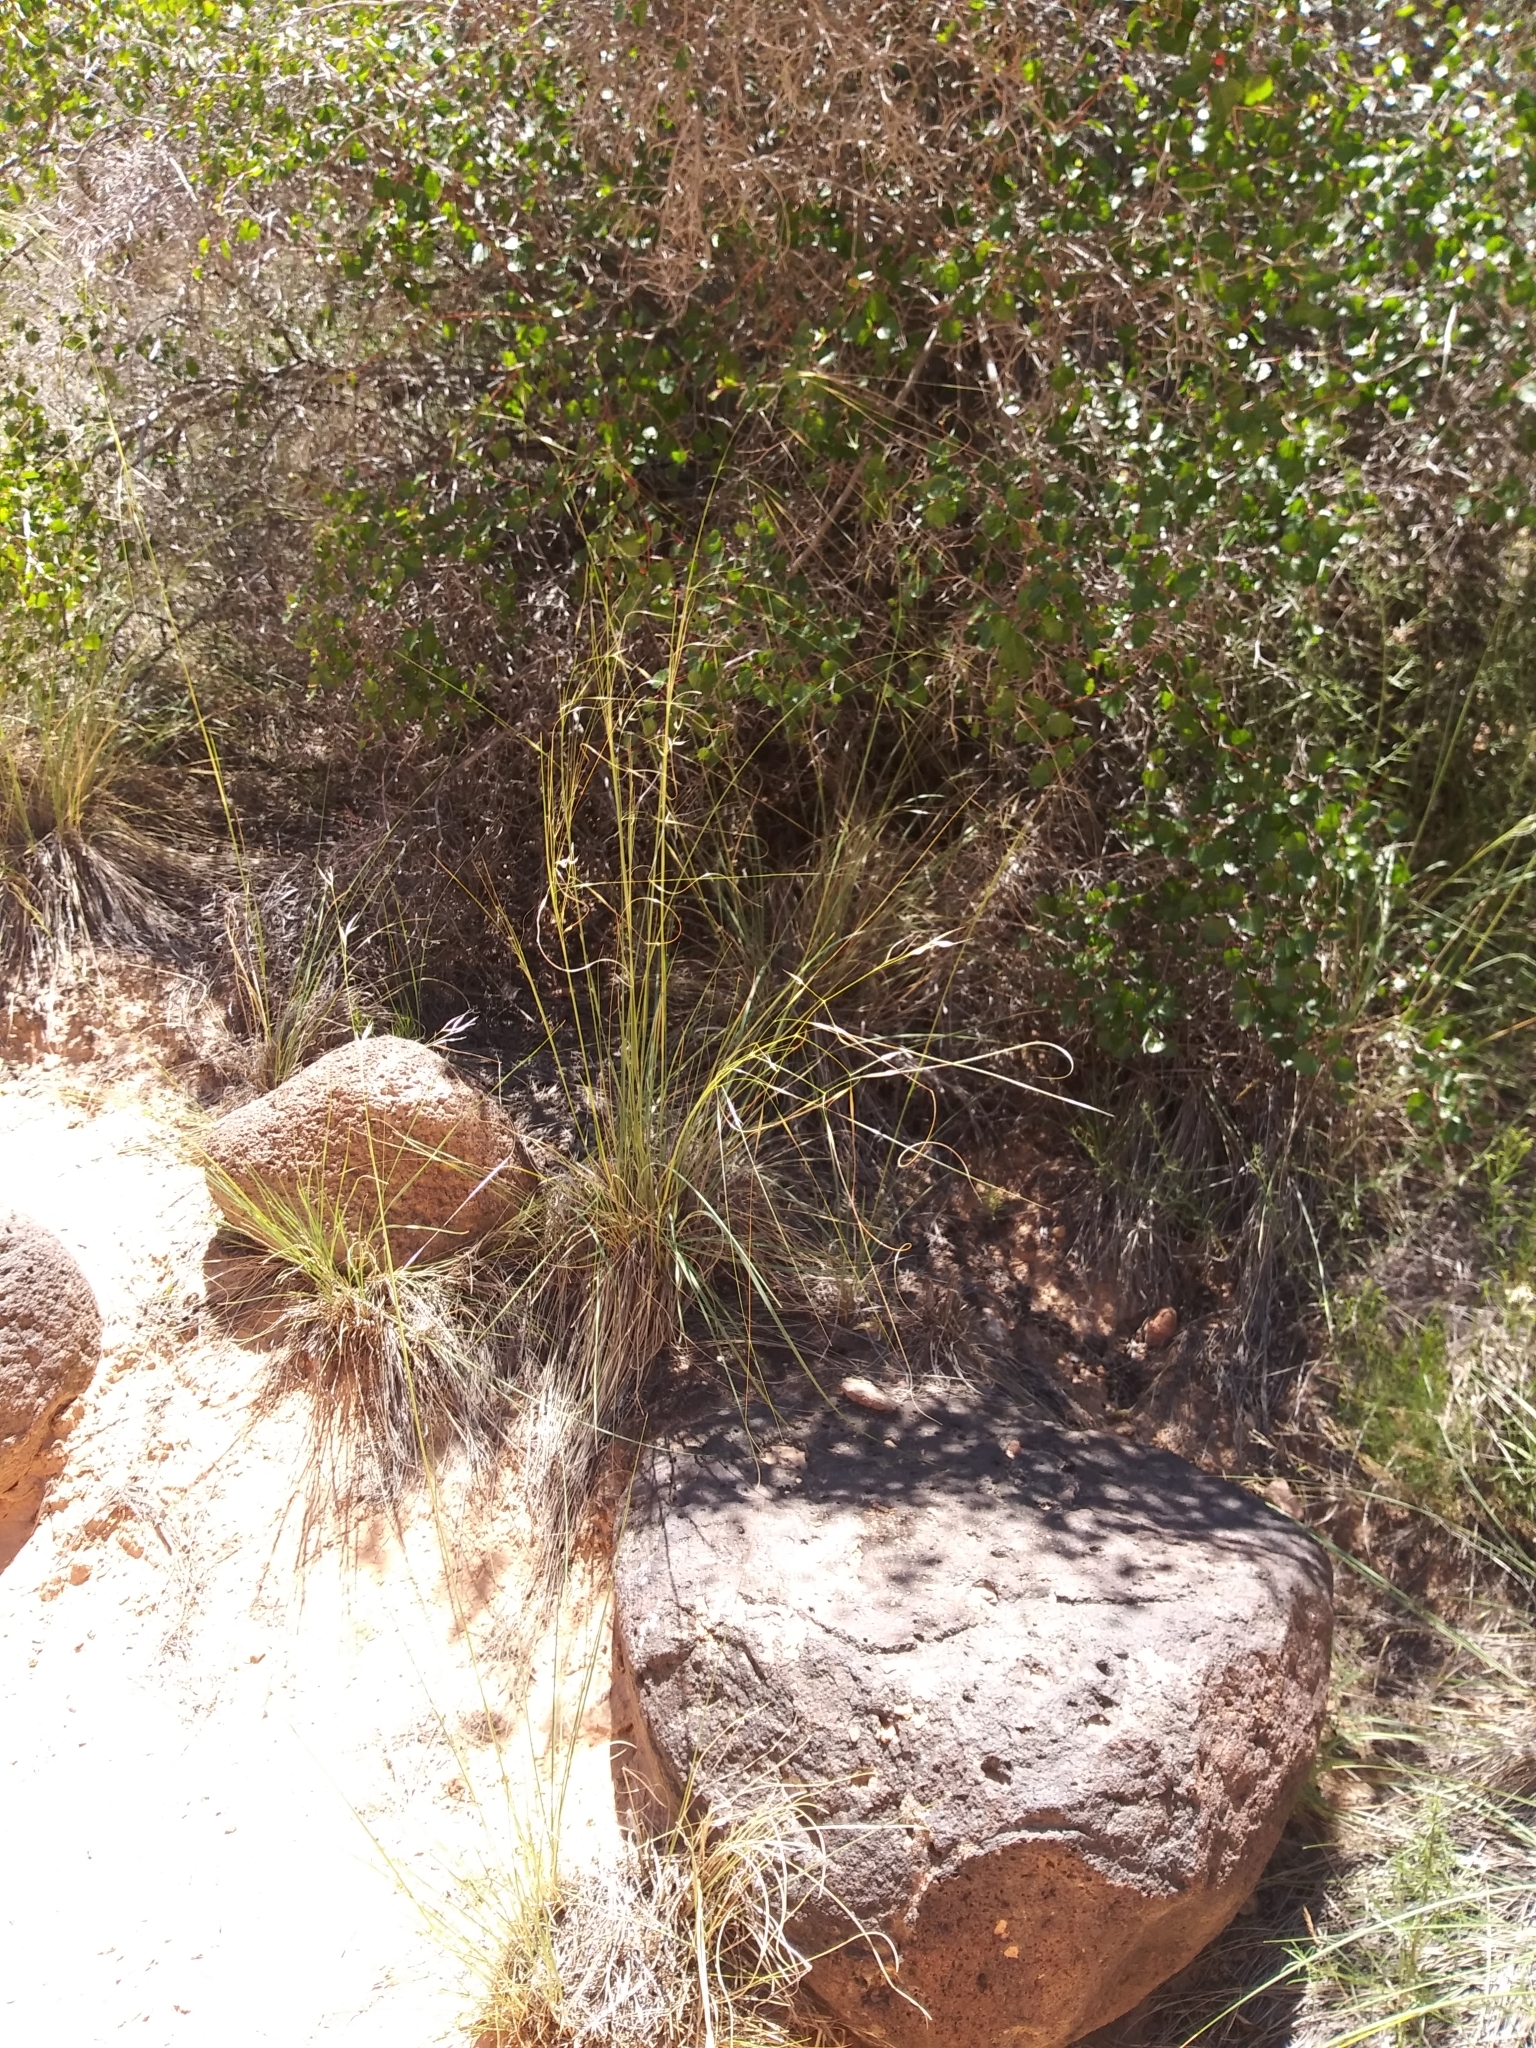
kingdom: Plantae
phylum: Tracheophyta
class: Liliopsida
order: Poales
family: Poaceae
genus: Hesperostipa
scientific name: Hesperostipa comata
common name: Needle-and-thread grass
